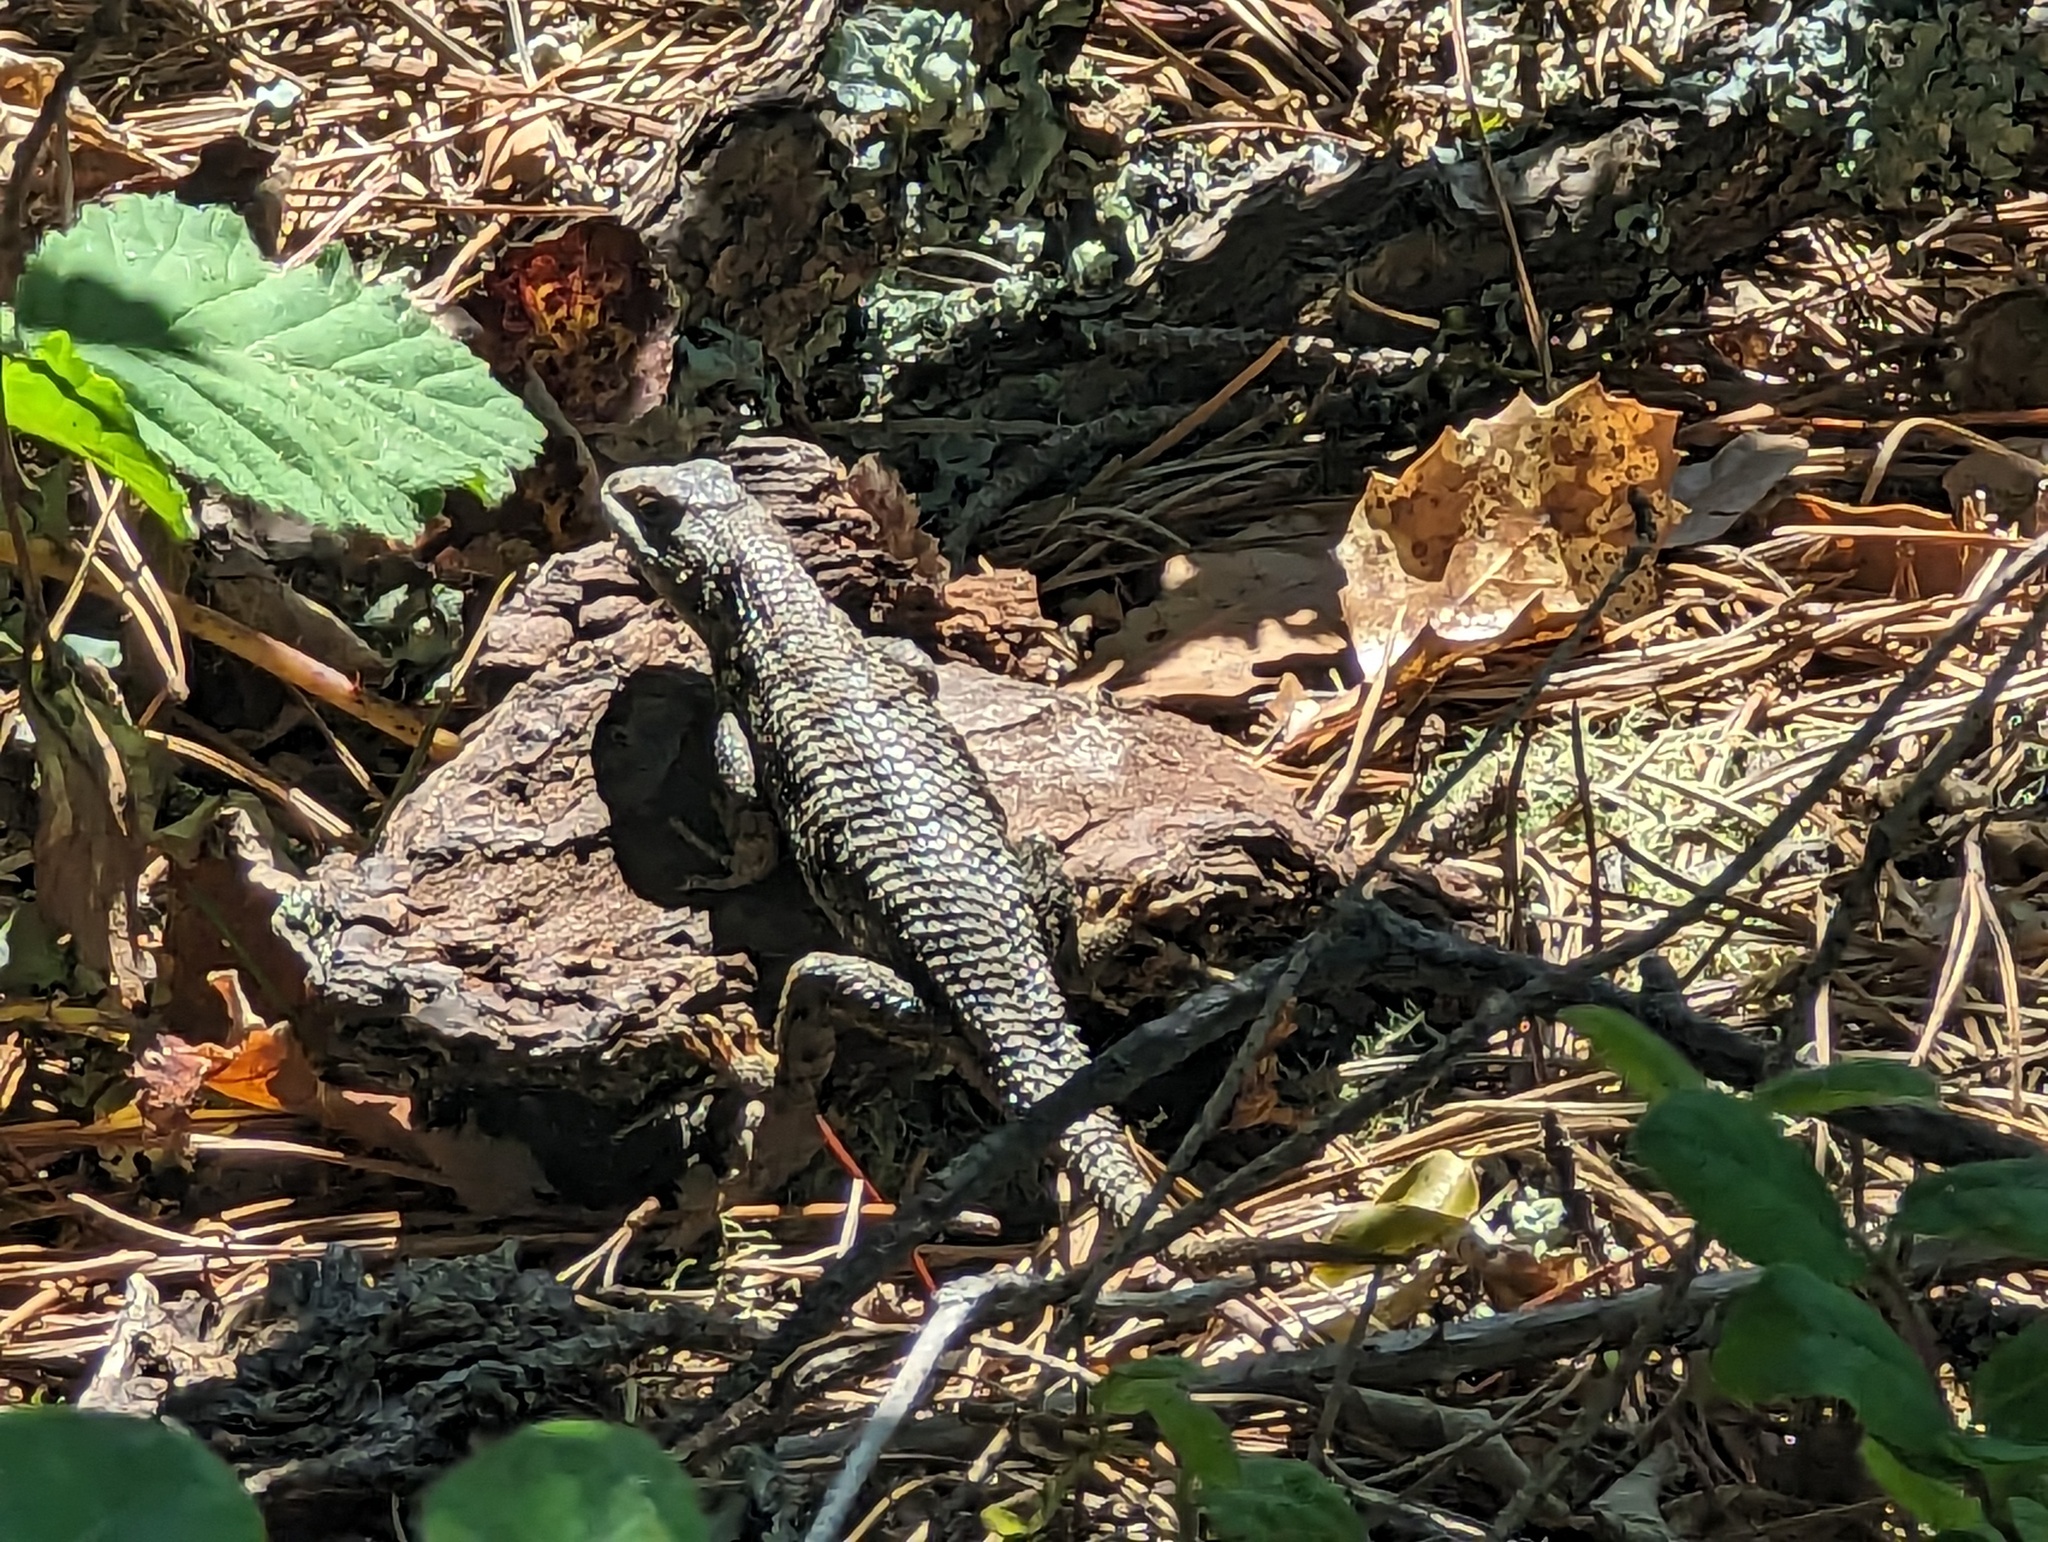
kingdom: Animalia
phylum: Chordata
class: Squamata
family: Phrynosomatidae
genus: Sceloporus
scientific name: Sceloporus occidentalis
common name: Western fence lizard
